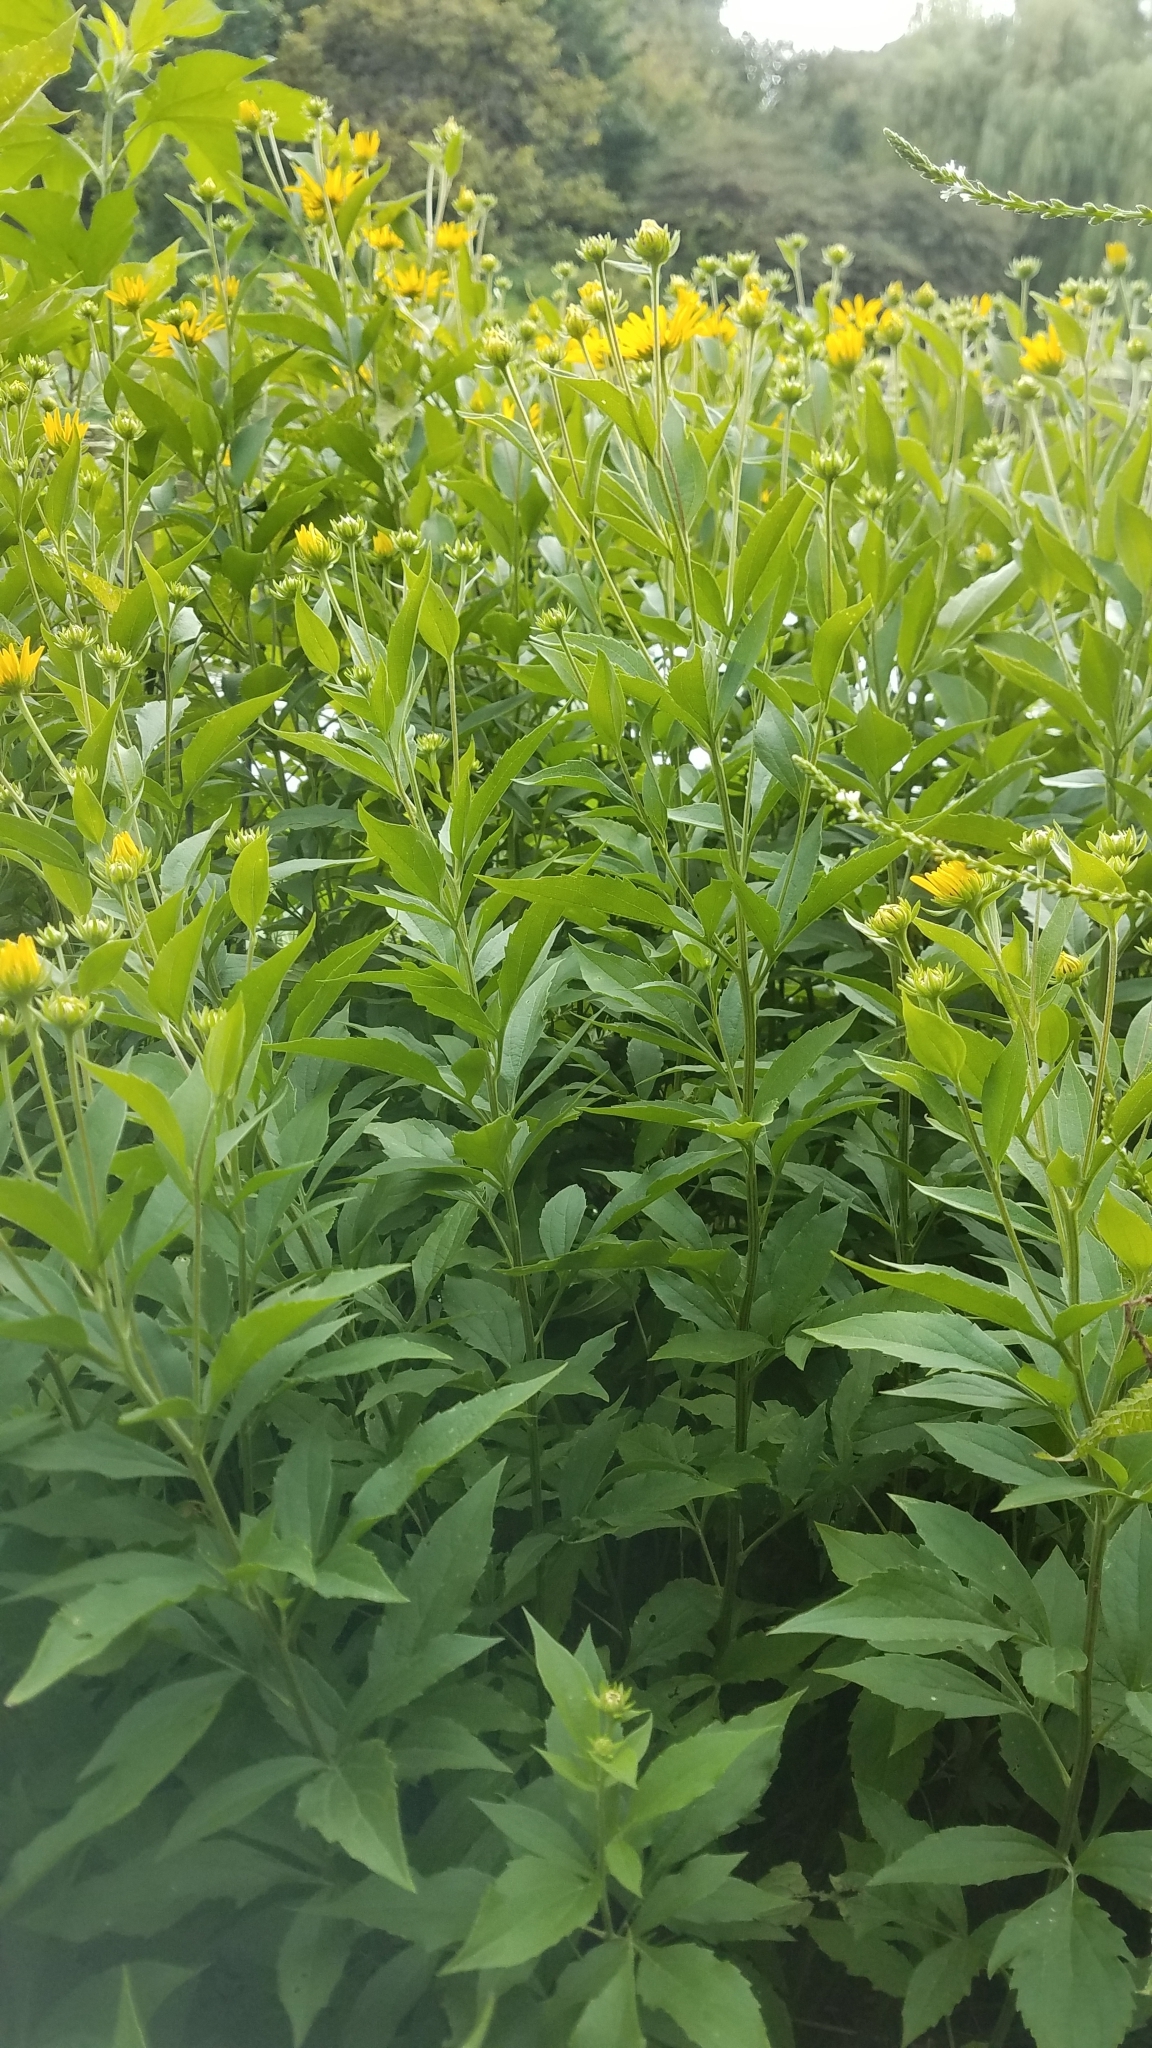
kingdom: Plantae
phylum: Tracheophyta
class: Magnoliopsida
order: Asterales
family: Asteraceae
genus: Rudbeckia
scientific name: Rudbeckia subtomentosa
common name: Sweet coneflower
